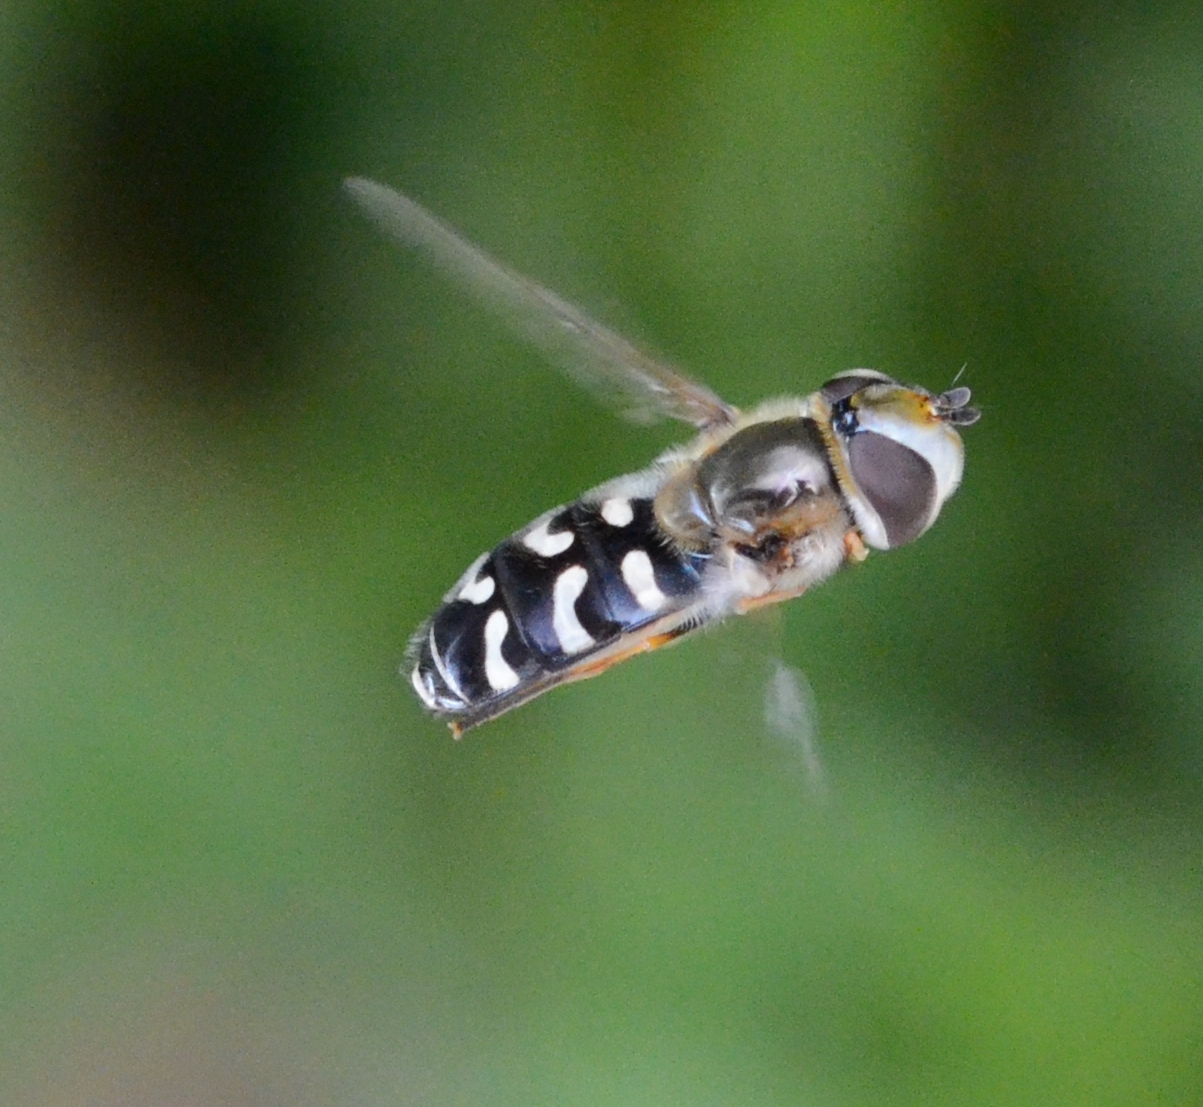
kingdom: Animalia
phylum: Arthropoda
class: Insecta
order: Diptera
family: Syrphidae
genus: Scaeva
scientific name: Scaeva pyrastri
